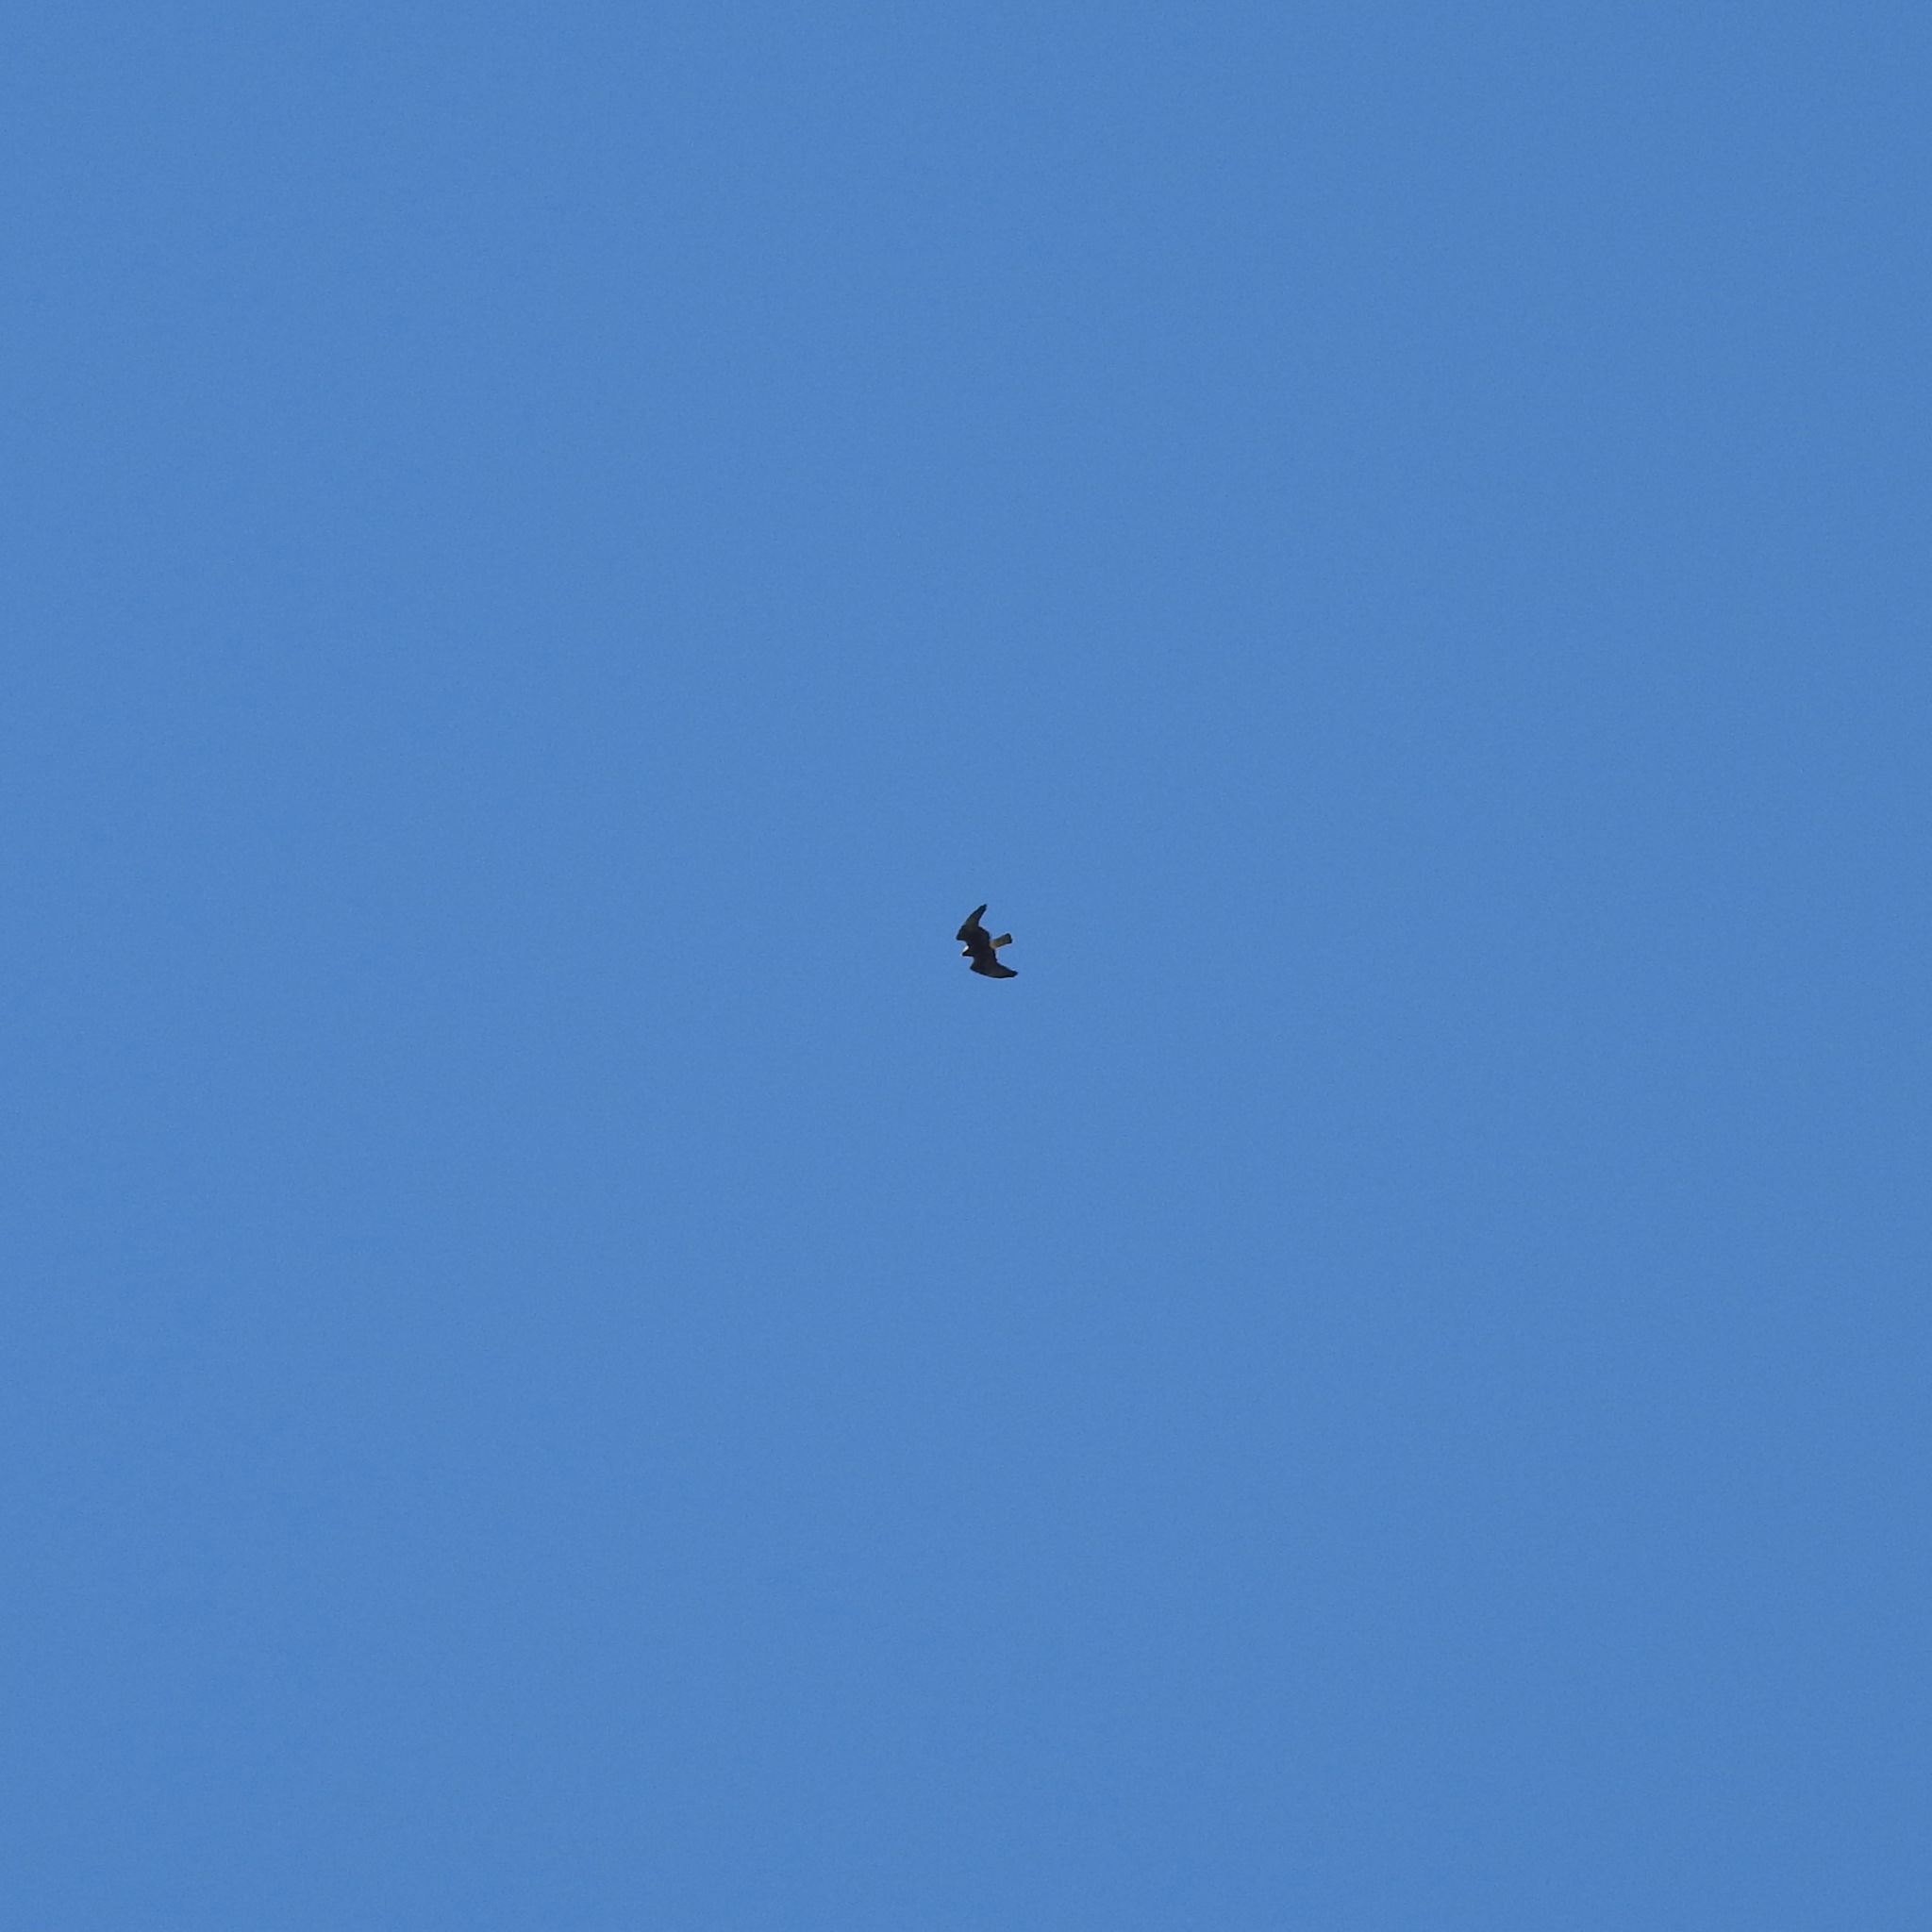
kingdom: Animalia
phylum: Chordata
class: Aves
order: Accipitriformes
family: Accipitridae
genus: Buteo
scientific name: Buteo swainsoni
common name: Swainson's hawk
